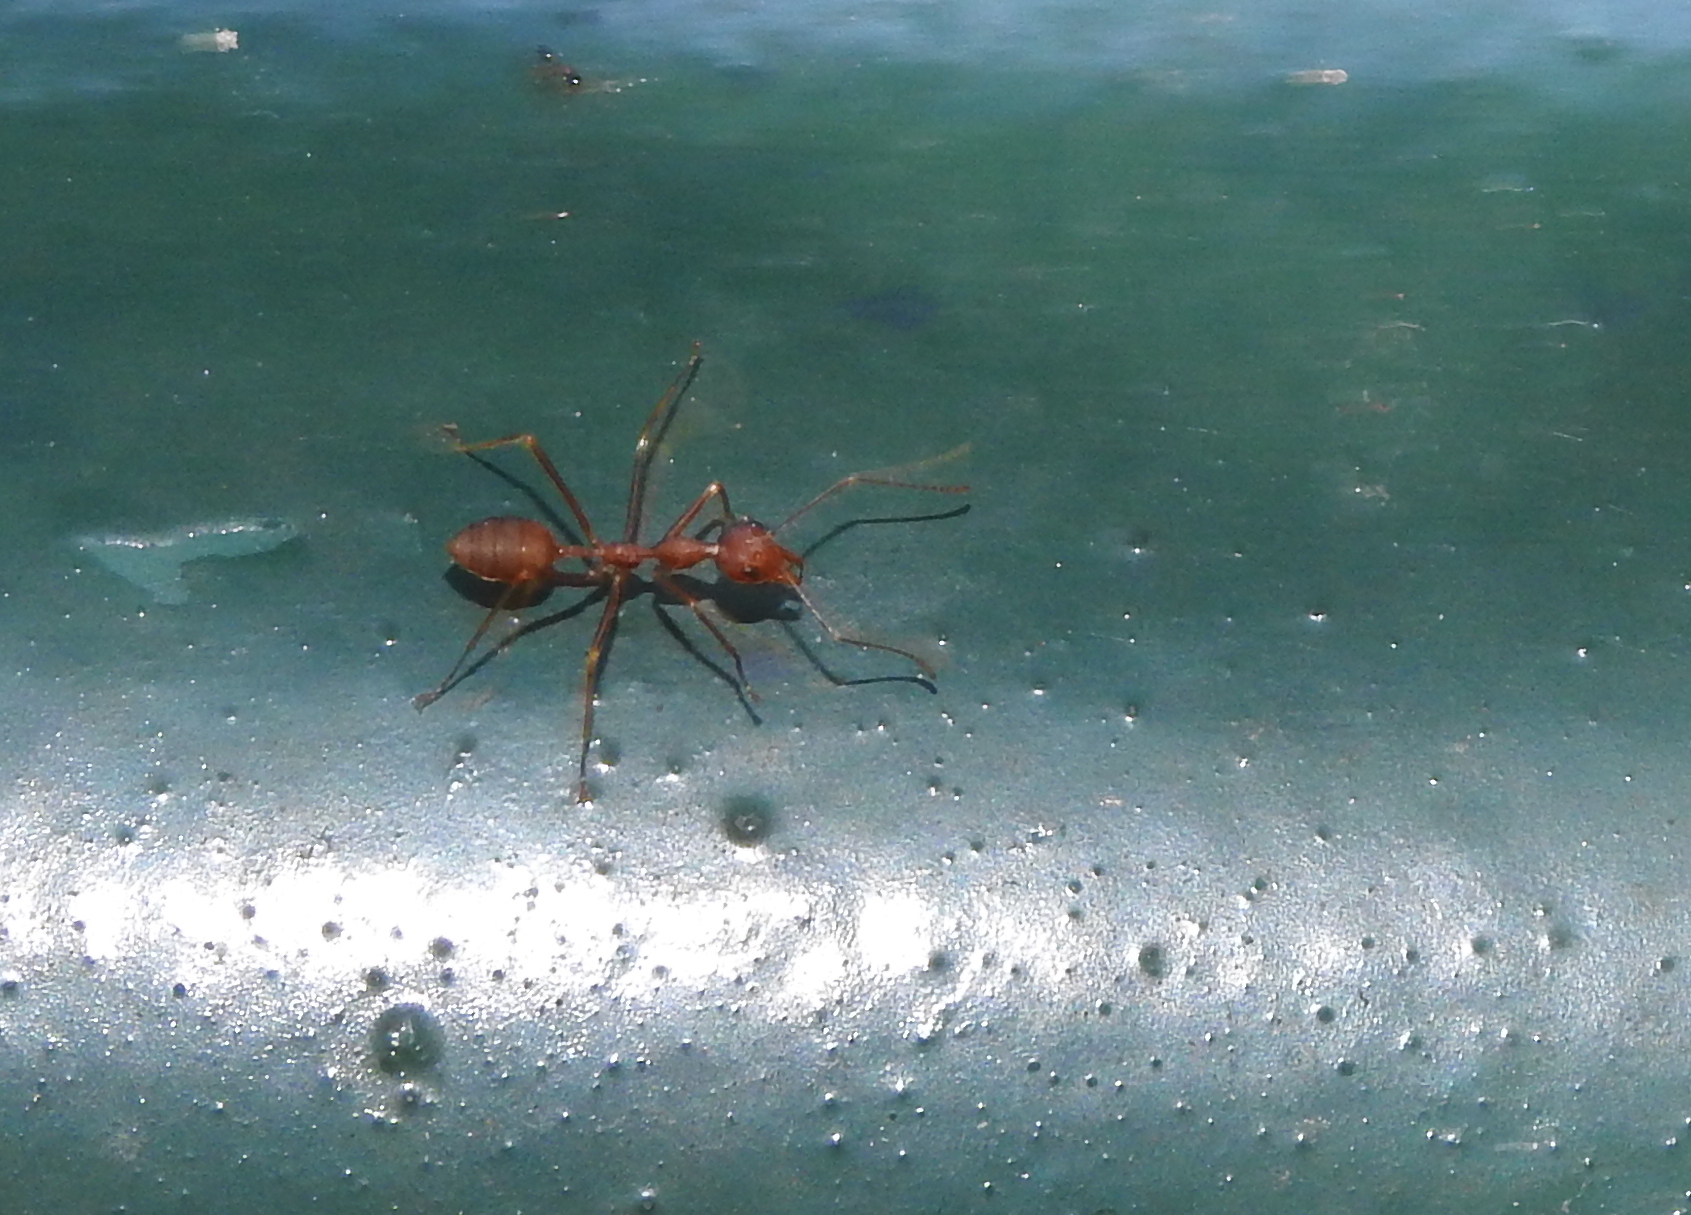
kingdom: Animalia
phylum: Arthropoda
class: Insecta
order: Hymenoptera
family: Formicidae
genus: Oecophylla
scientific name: Oecophylla smaragdina
